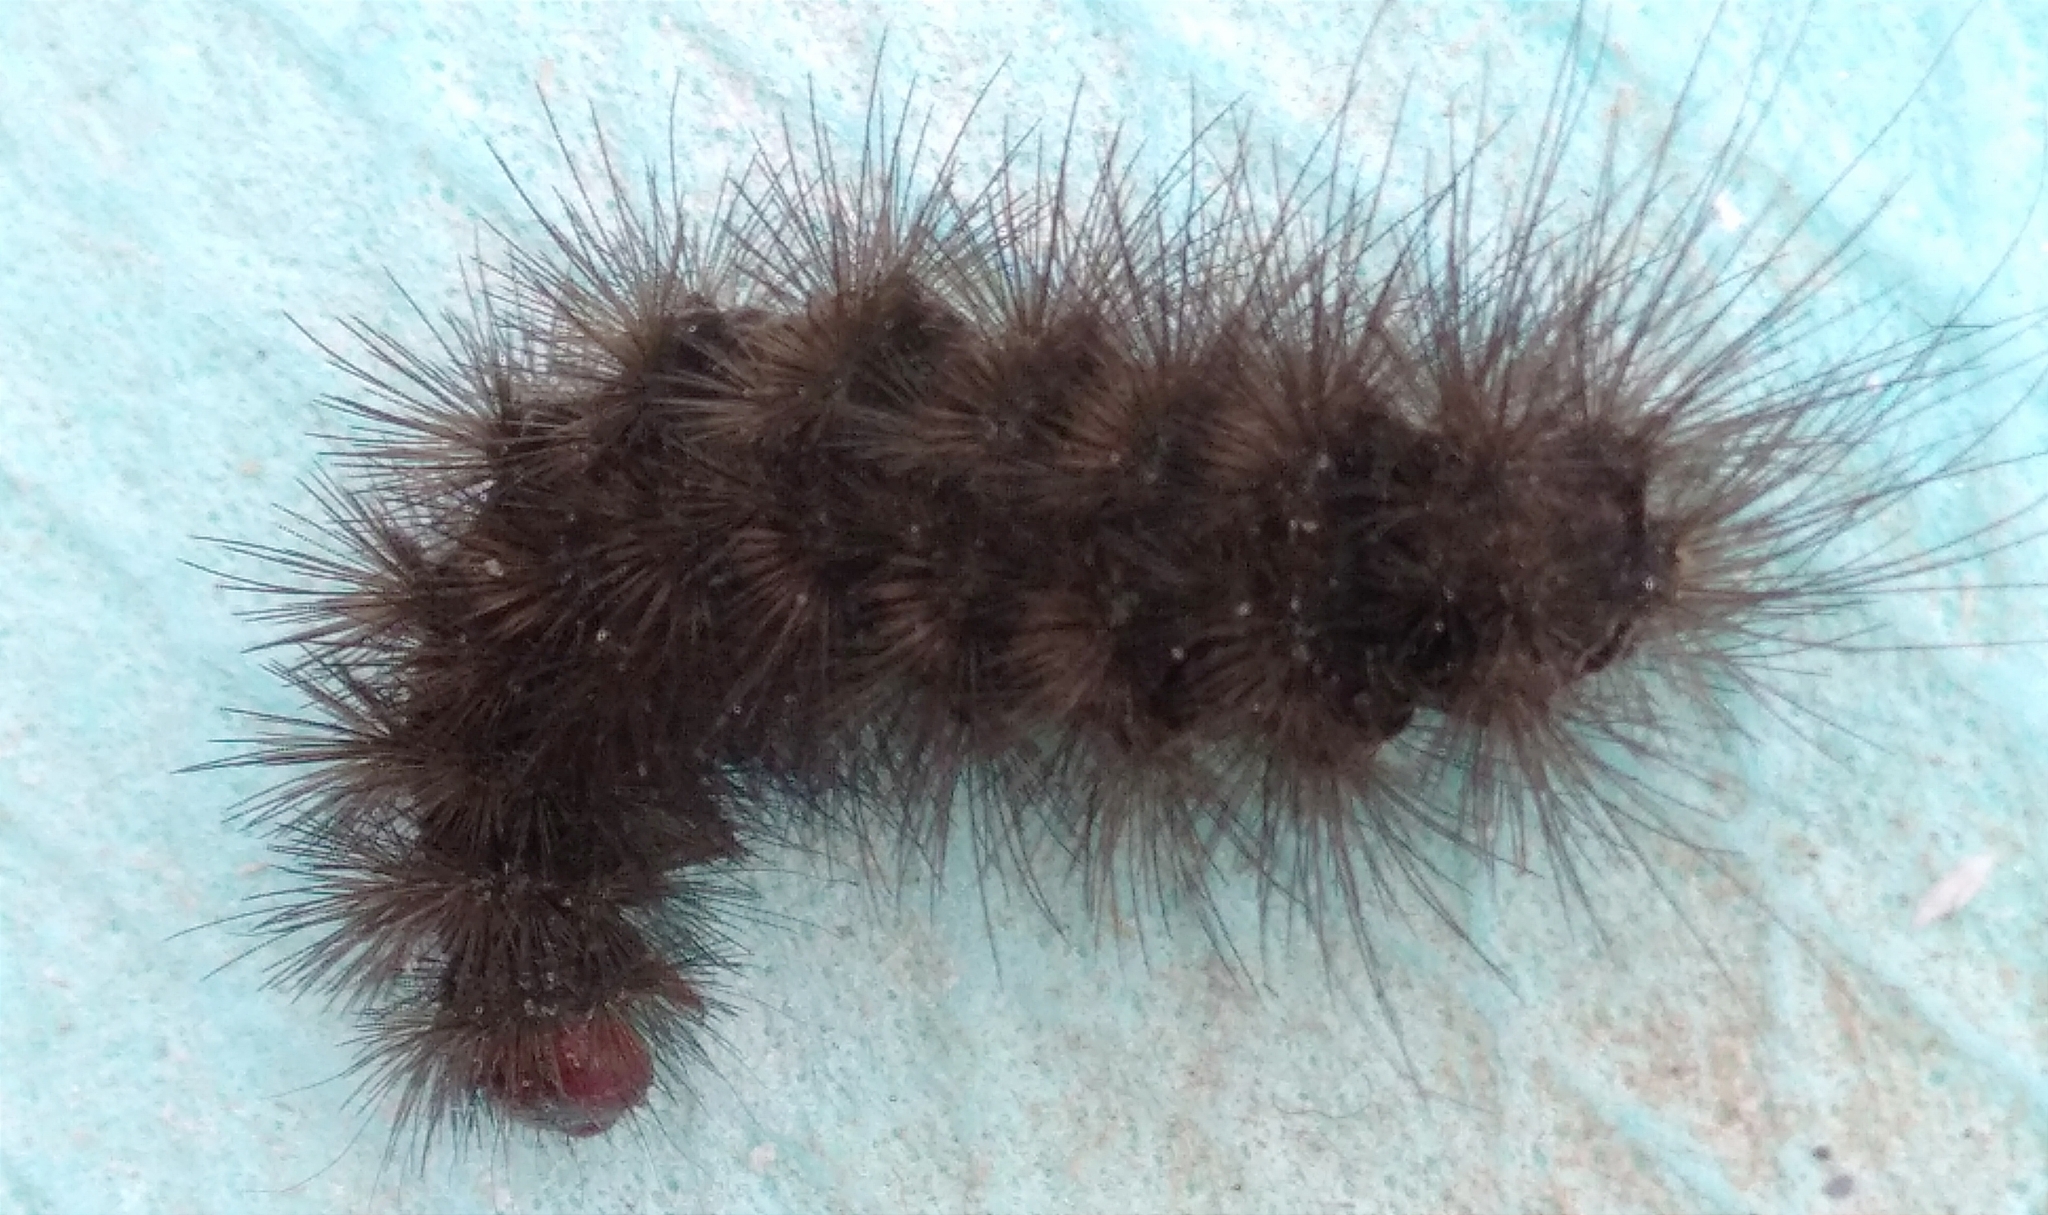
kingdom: Animalia
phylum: Arthropoda
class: Insecta
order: Lepidoptera
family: Erebidae
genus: Epicallia
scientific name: Epicallia villica
